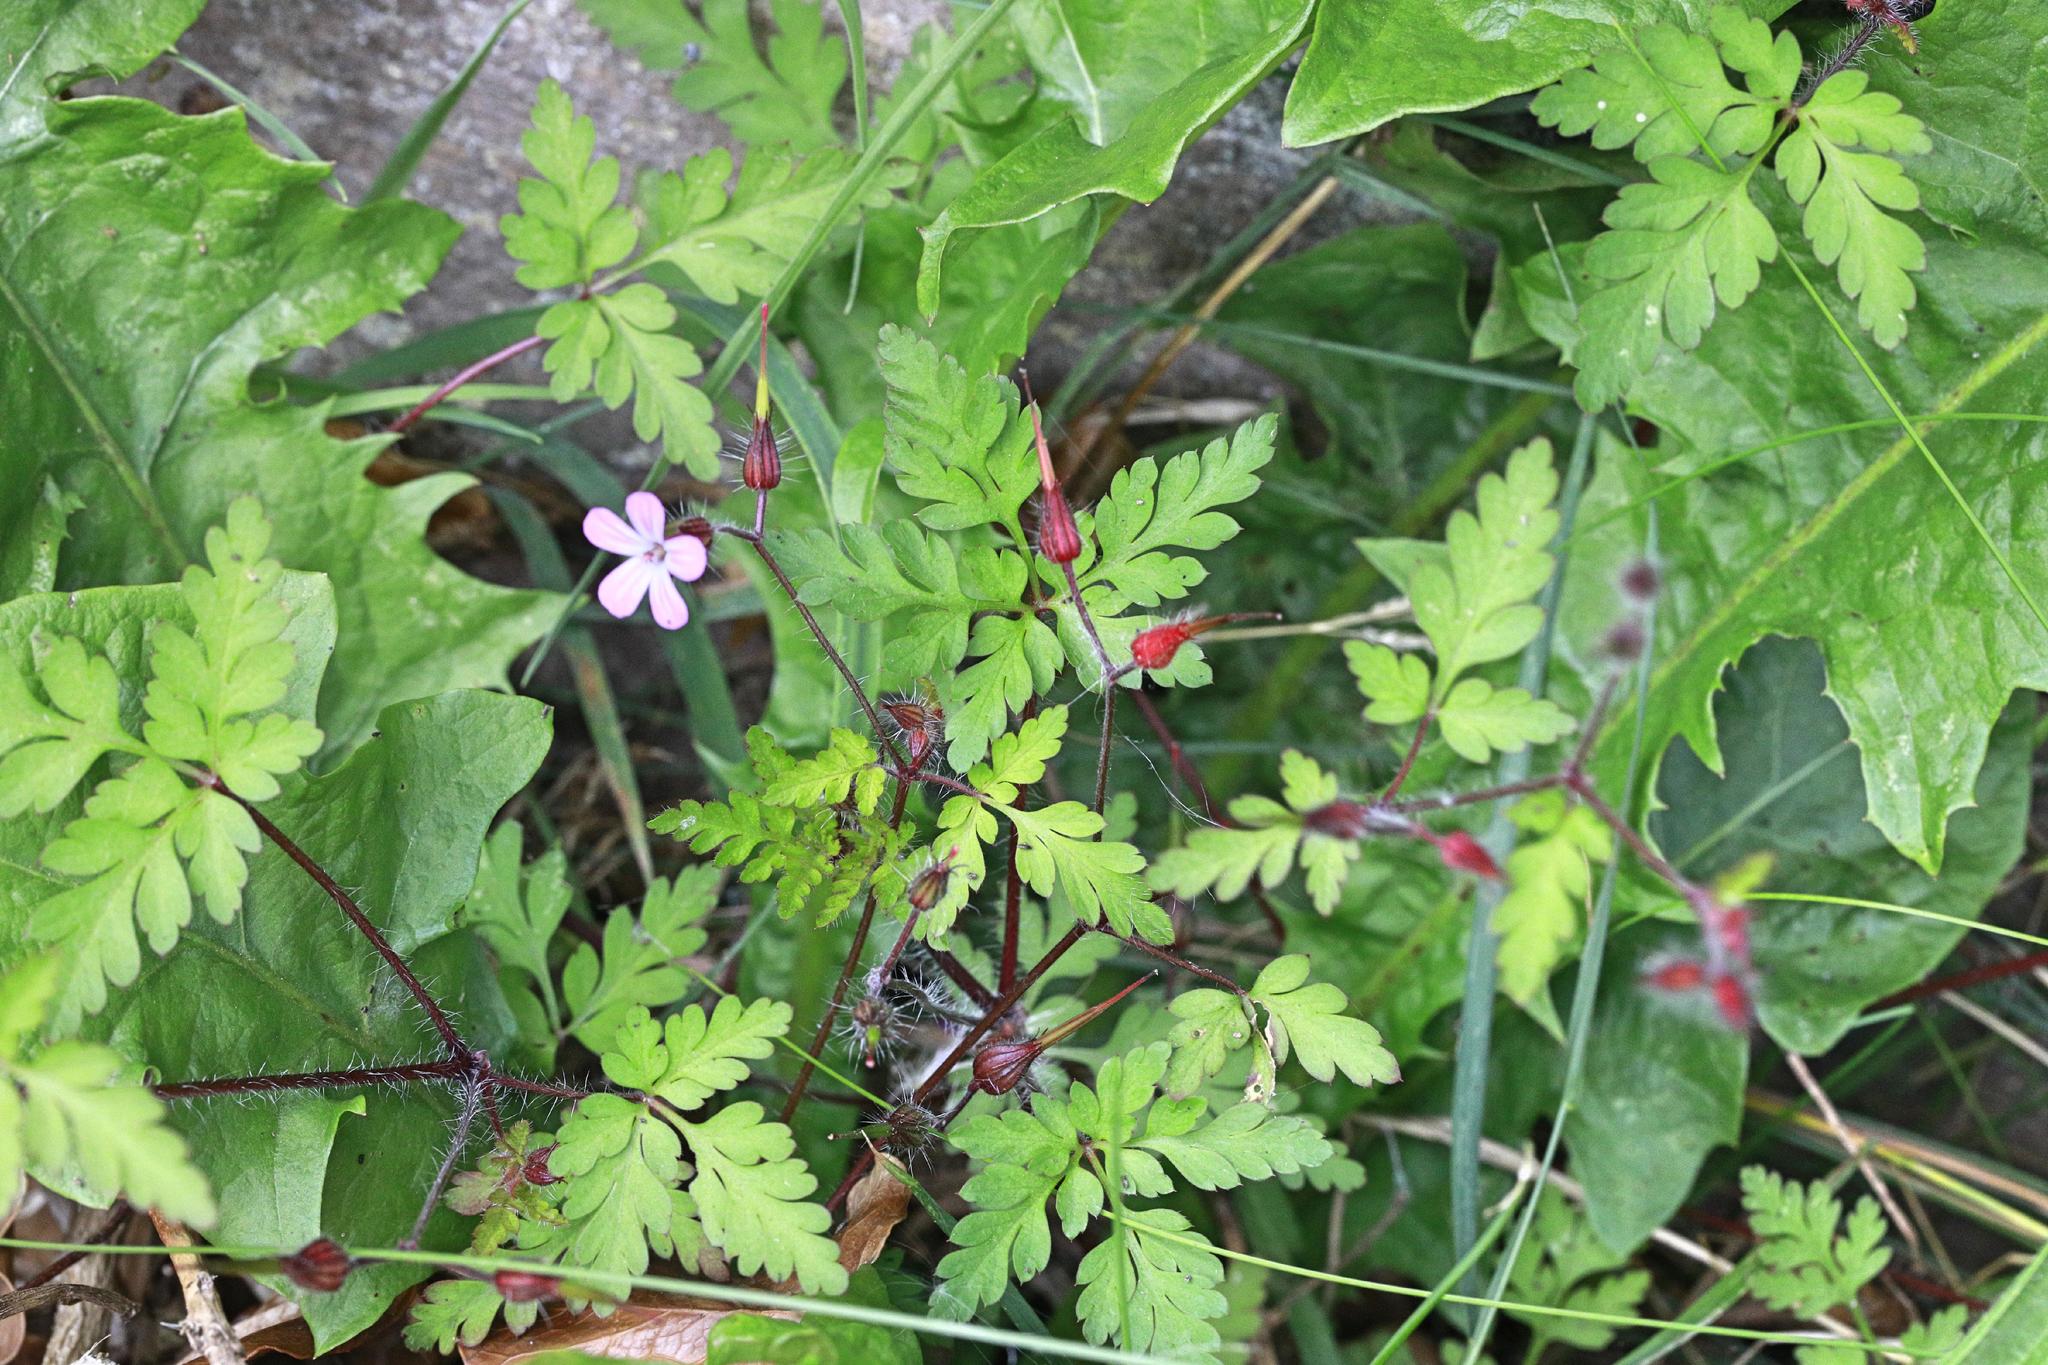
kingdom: Plantae
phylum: Tracheophyta
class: Magnoliopsida
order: Geraniales
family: Geraniaceae
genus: Geranium
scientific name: Geranium robertianum
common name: Herb-robert
